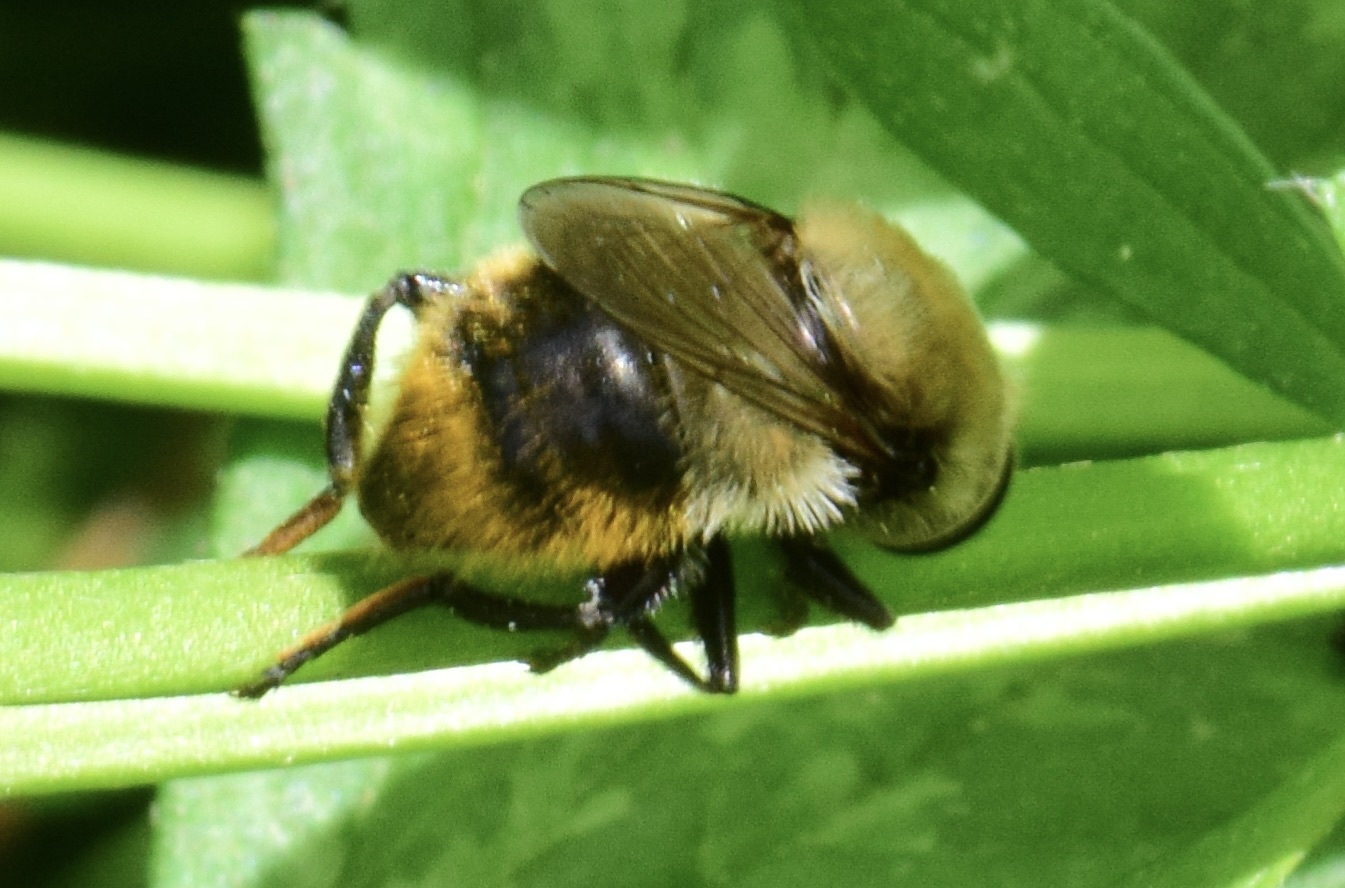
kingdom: Animalia
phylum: Arthropoda
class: Insecta
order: Diptera
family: Syrphidae
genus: Merodon
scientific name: Merodon equestris
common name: Greater bulb-fly
